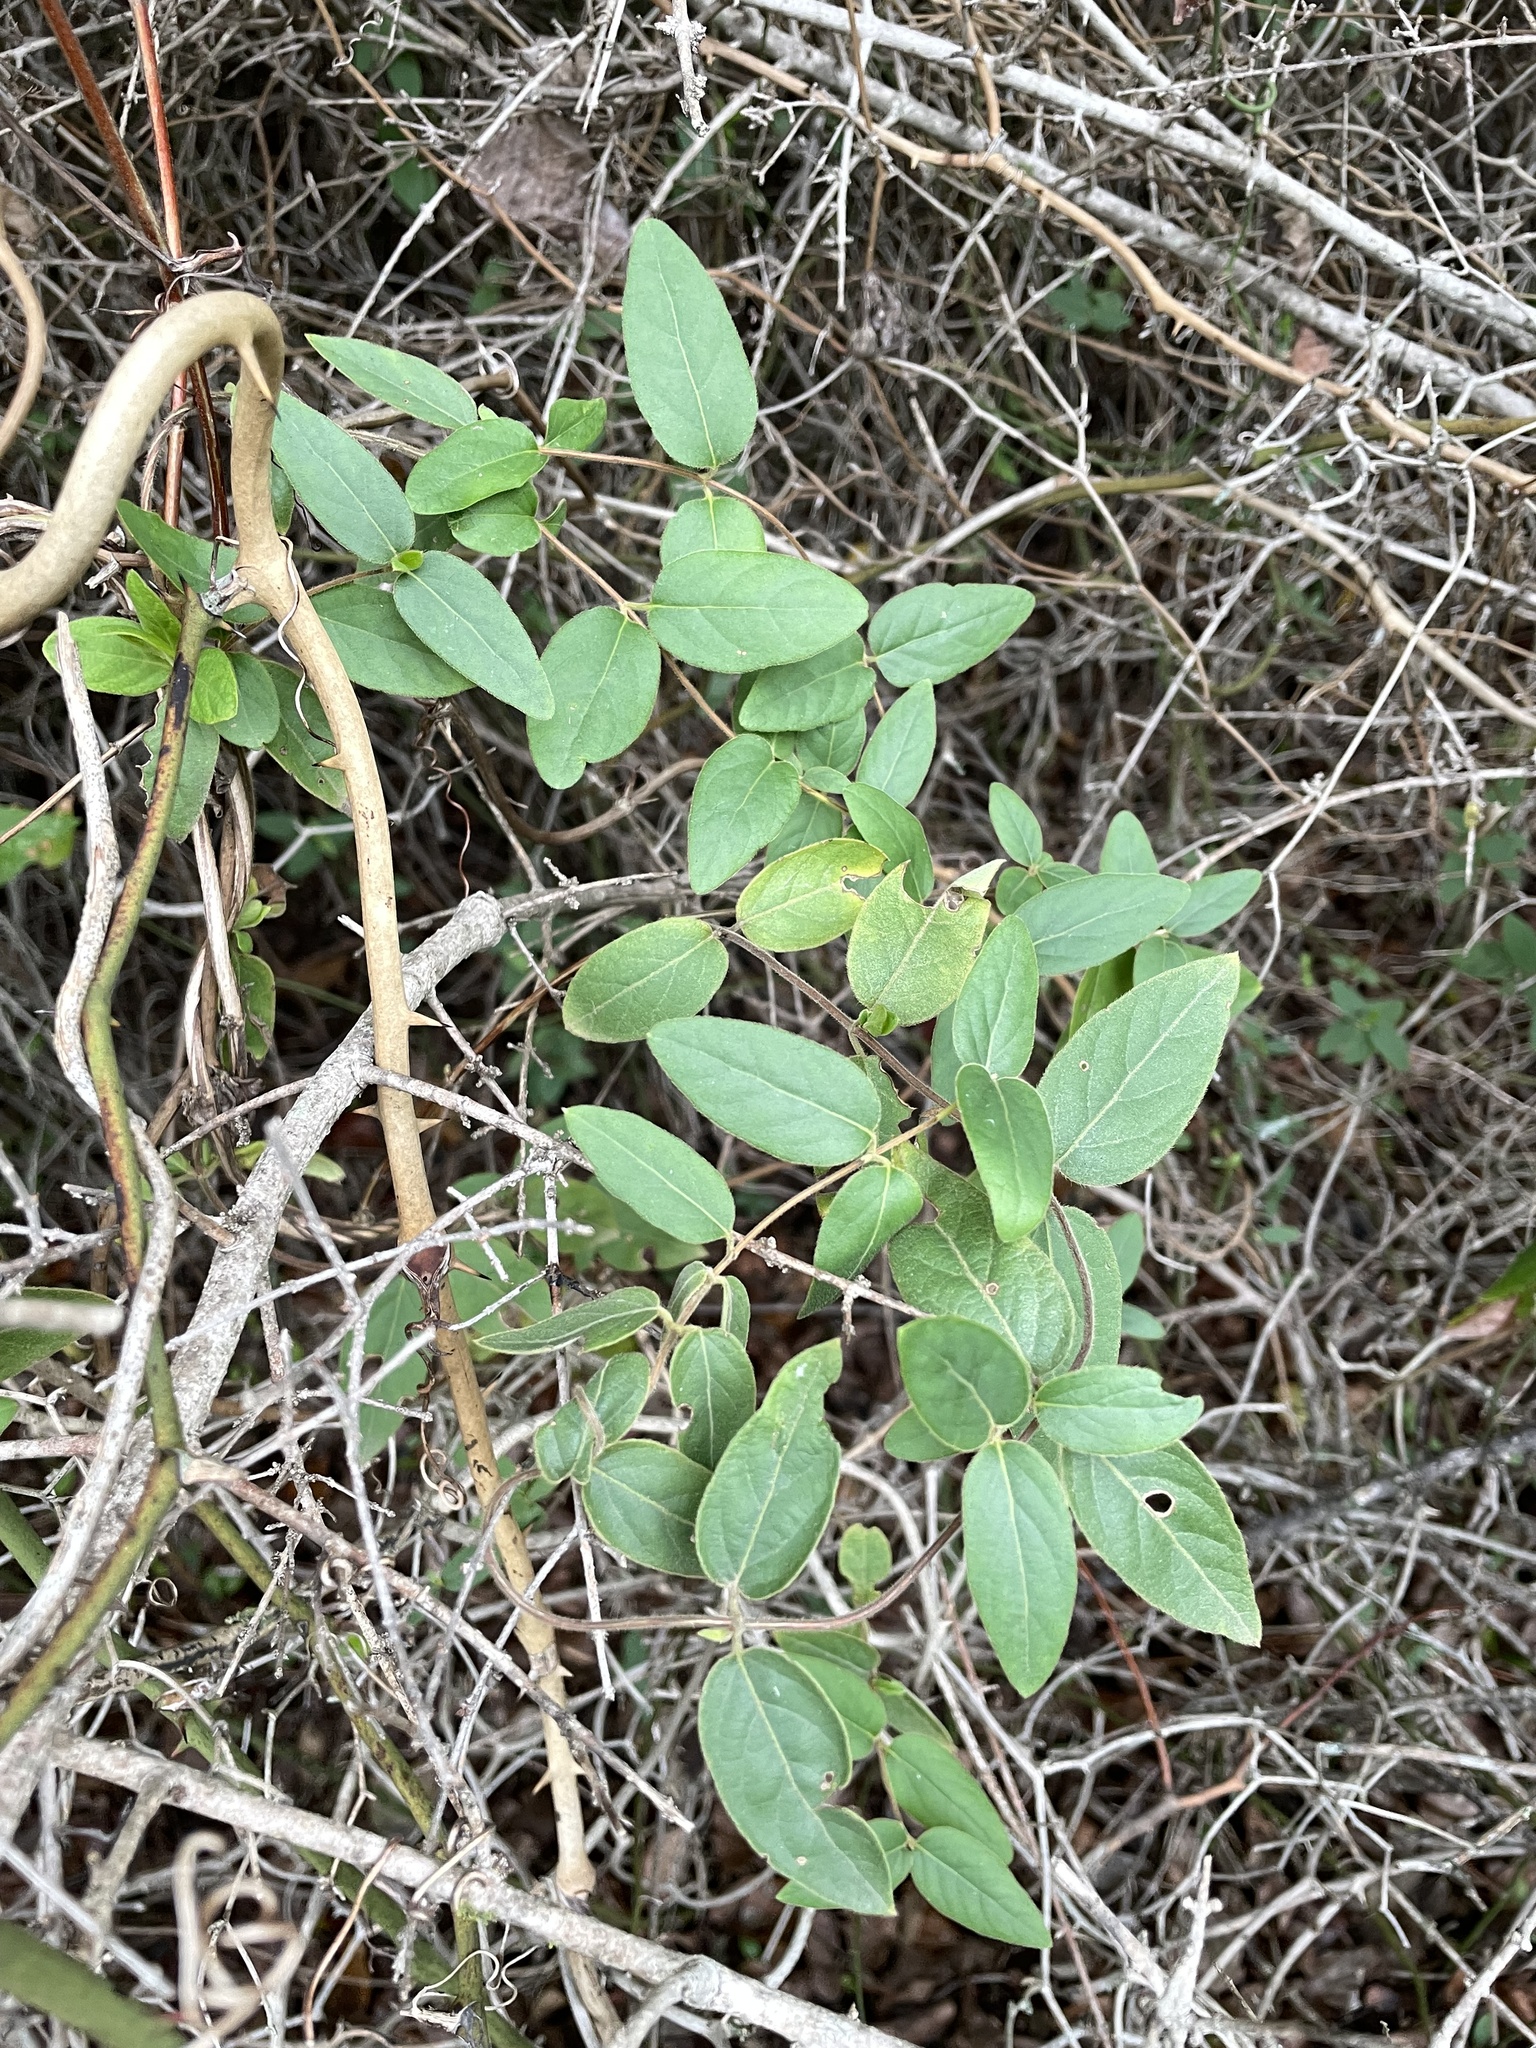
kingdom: Plantae
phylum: Tracheophyta
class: Magnoliopsida
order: Dipsacales
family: Caprifoliaceae
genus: Lonicera
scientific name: Lonicera japonica
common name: Japanese honeysuckle
